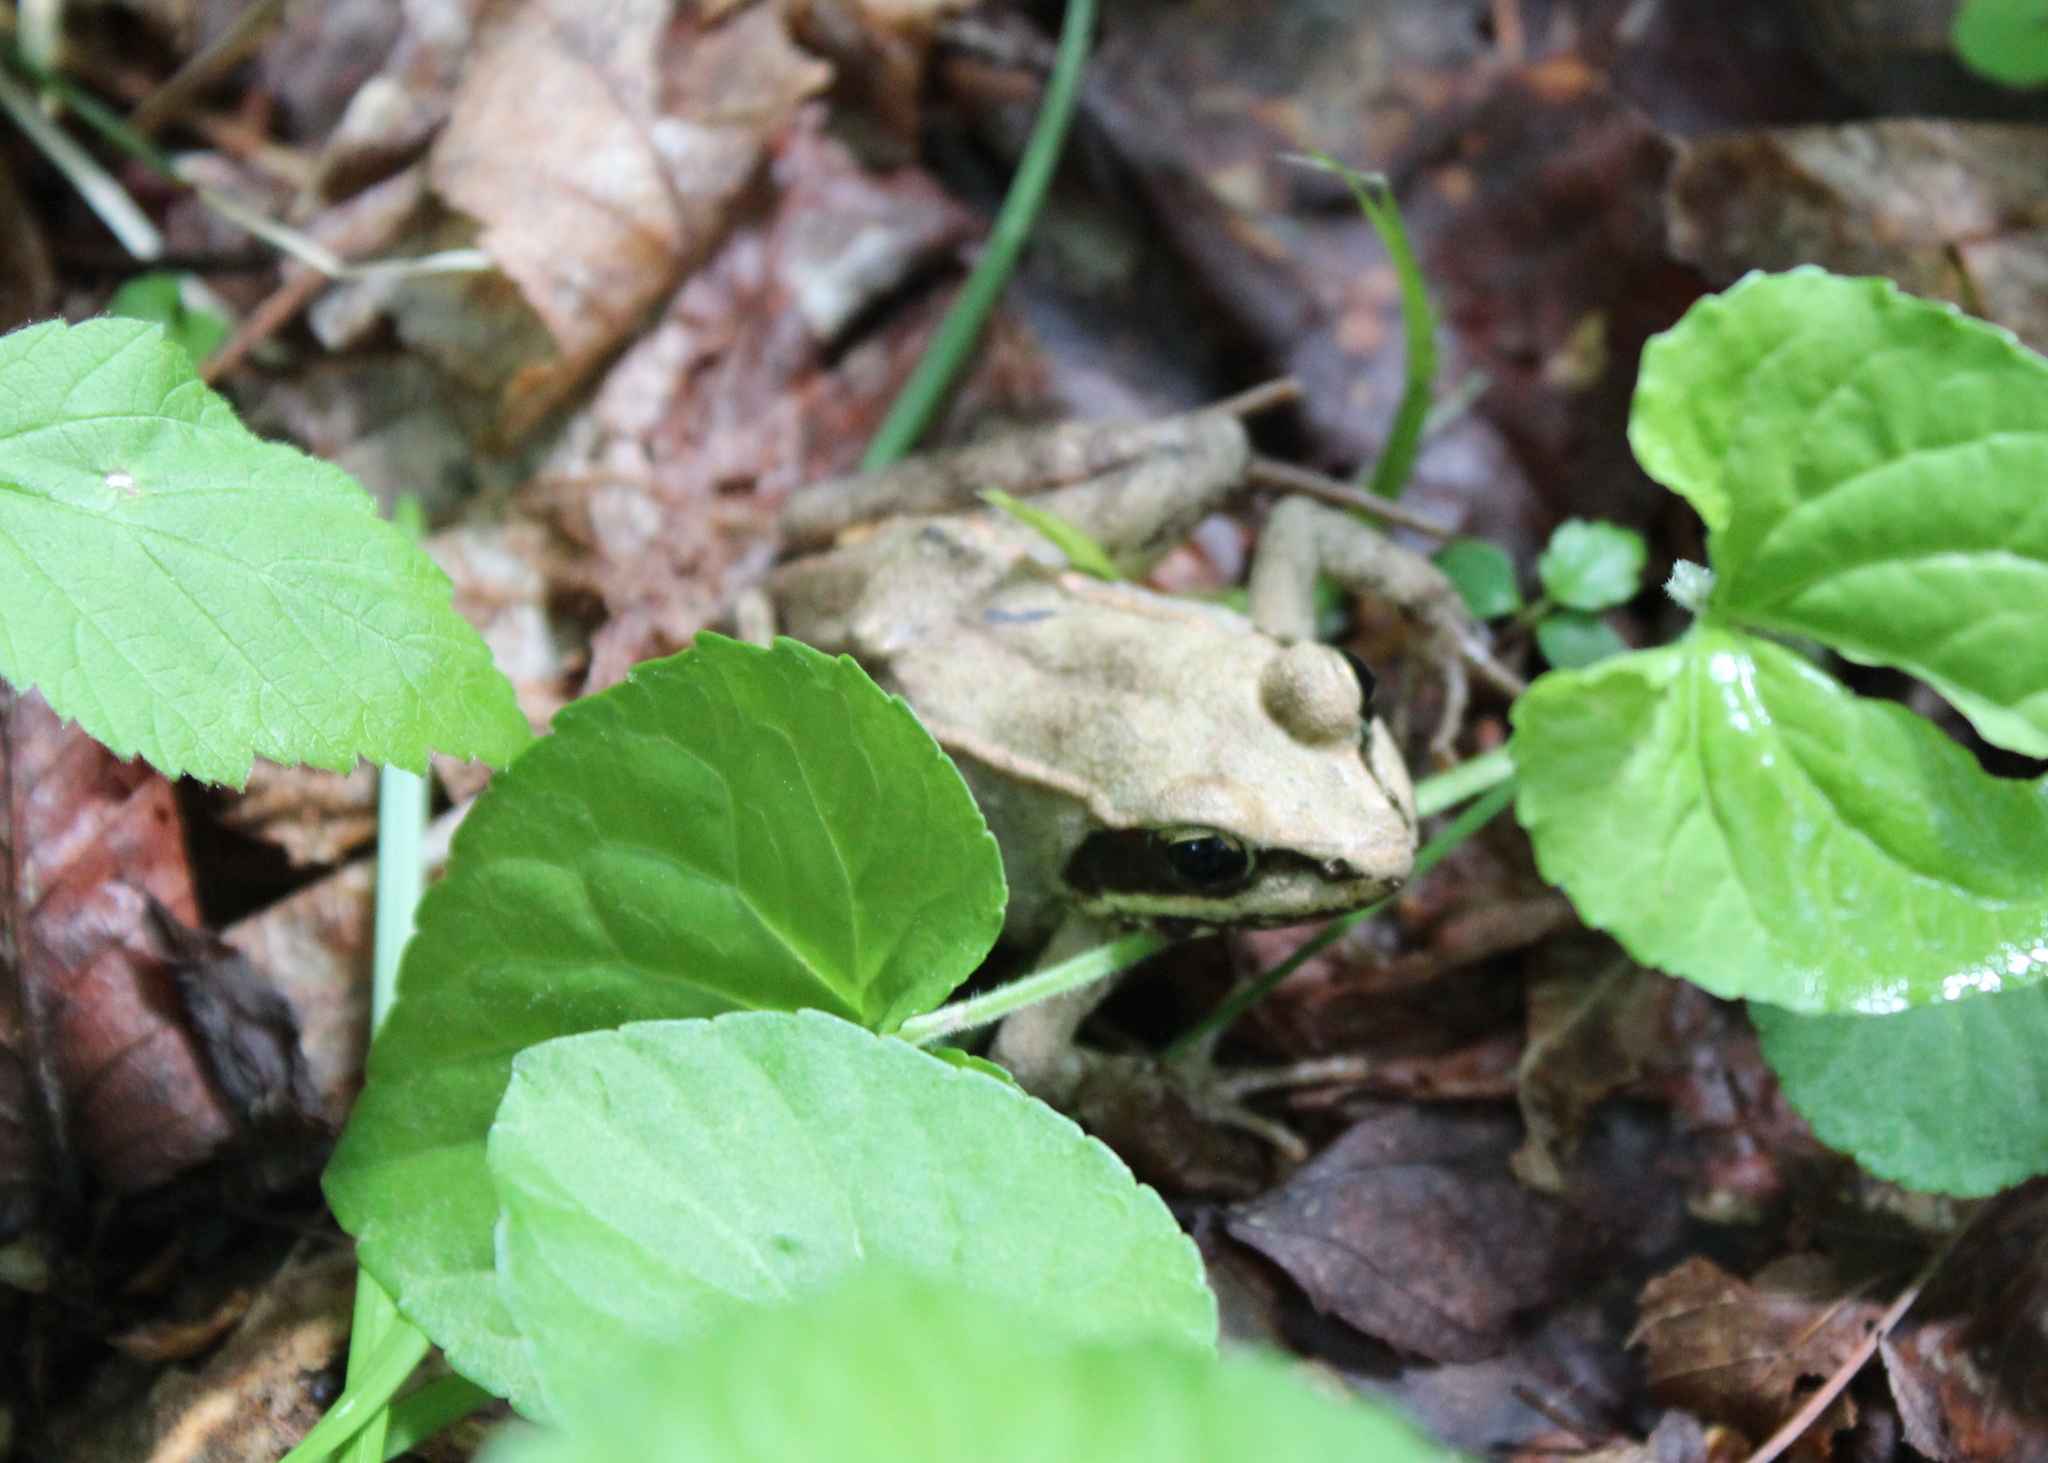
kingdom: Animalia
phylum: Chordata
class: Amphibia
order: Anura
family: Ranidae
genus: Lithobates
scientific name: Lithobates sylvaticus
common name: Wood frog
